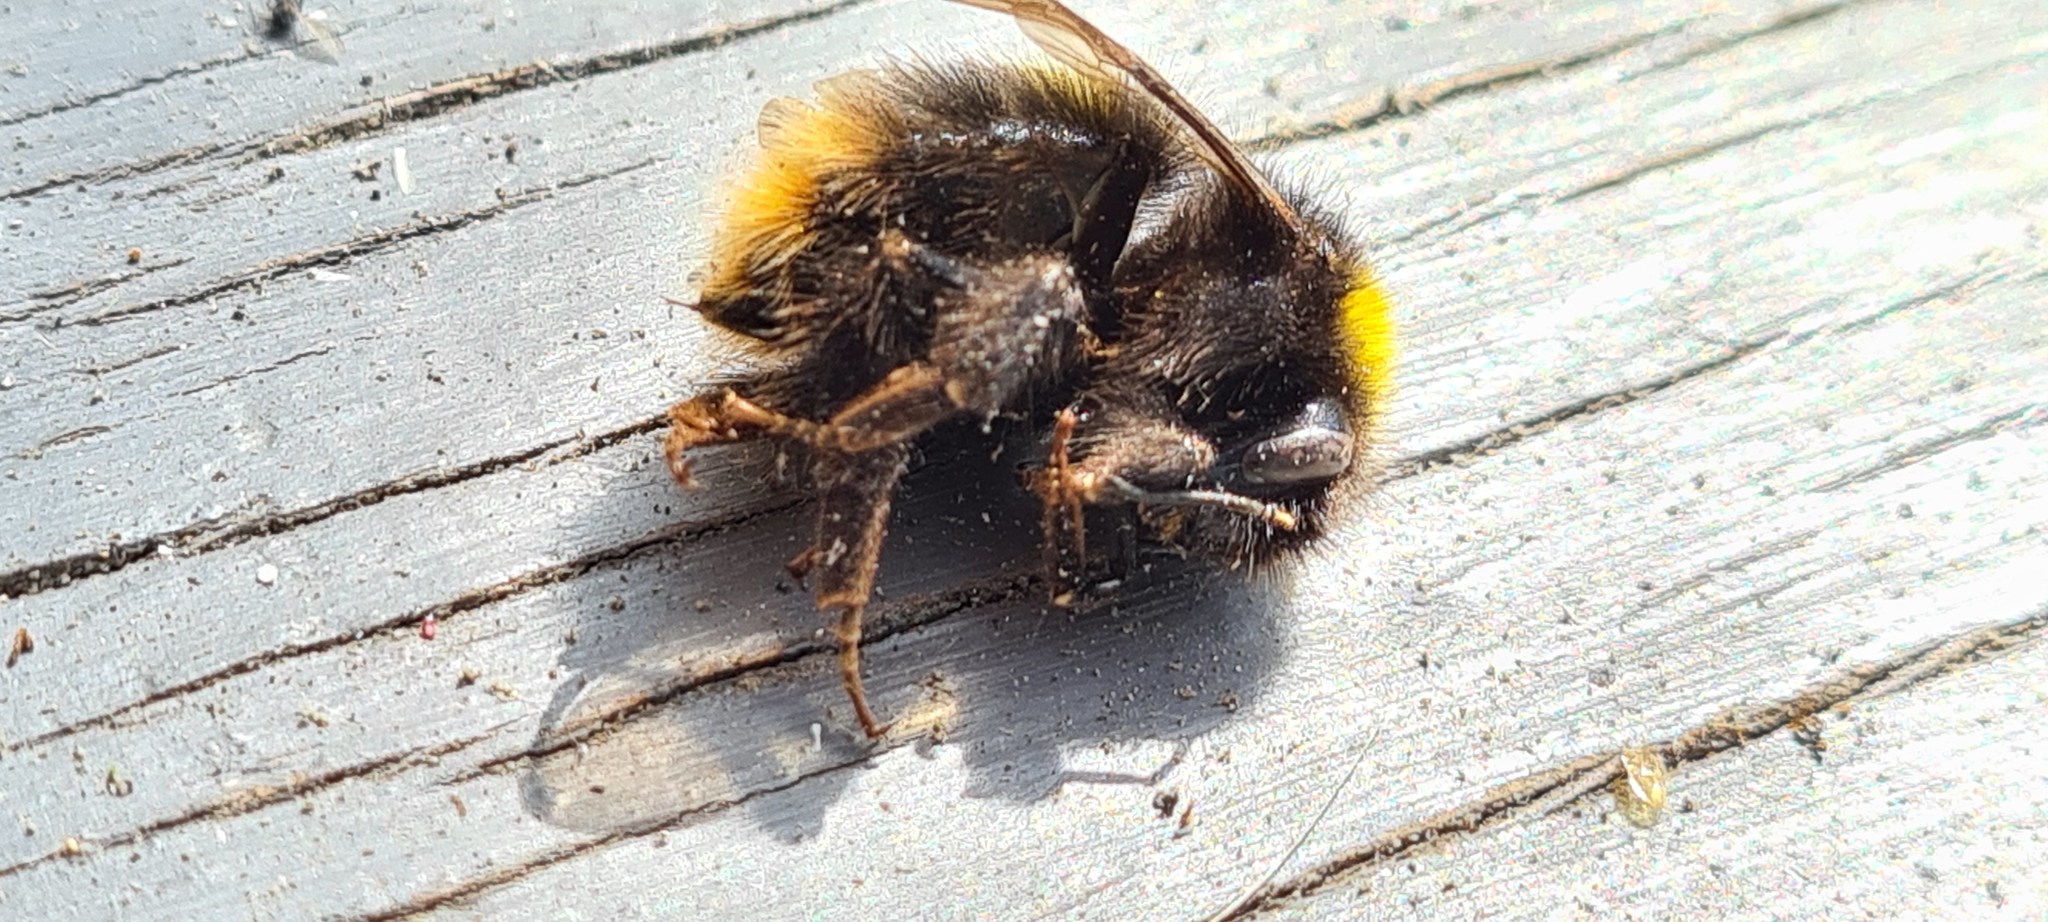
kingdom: Animalia
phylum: Arthropoda
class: Insecta
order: Hymenoptera
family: Apidae
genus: Bombus
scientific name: Bombus pratorum
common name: Early humble-bee
